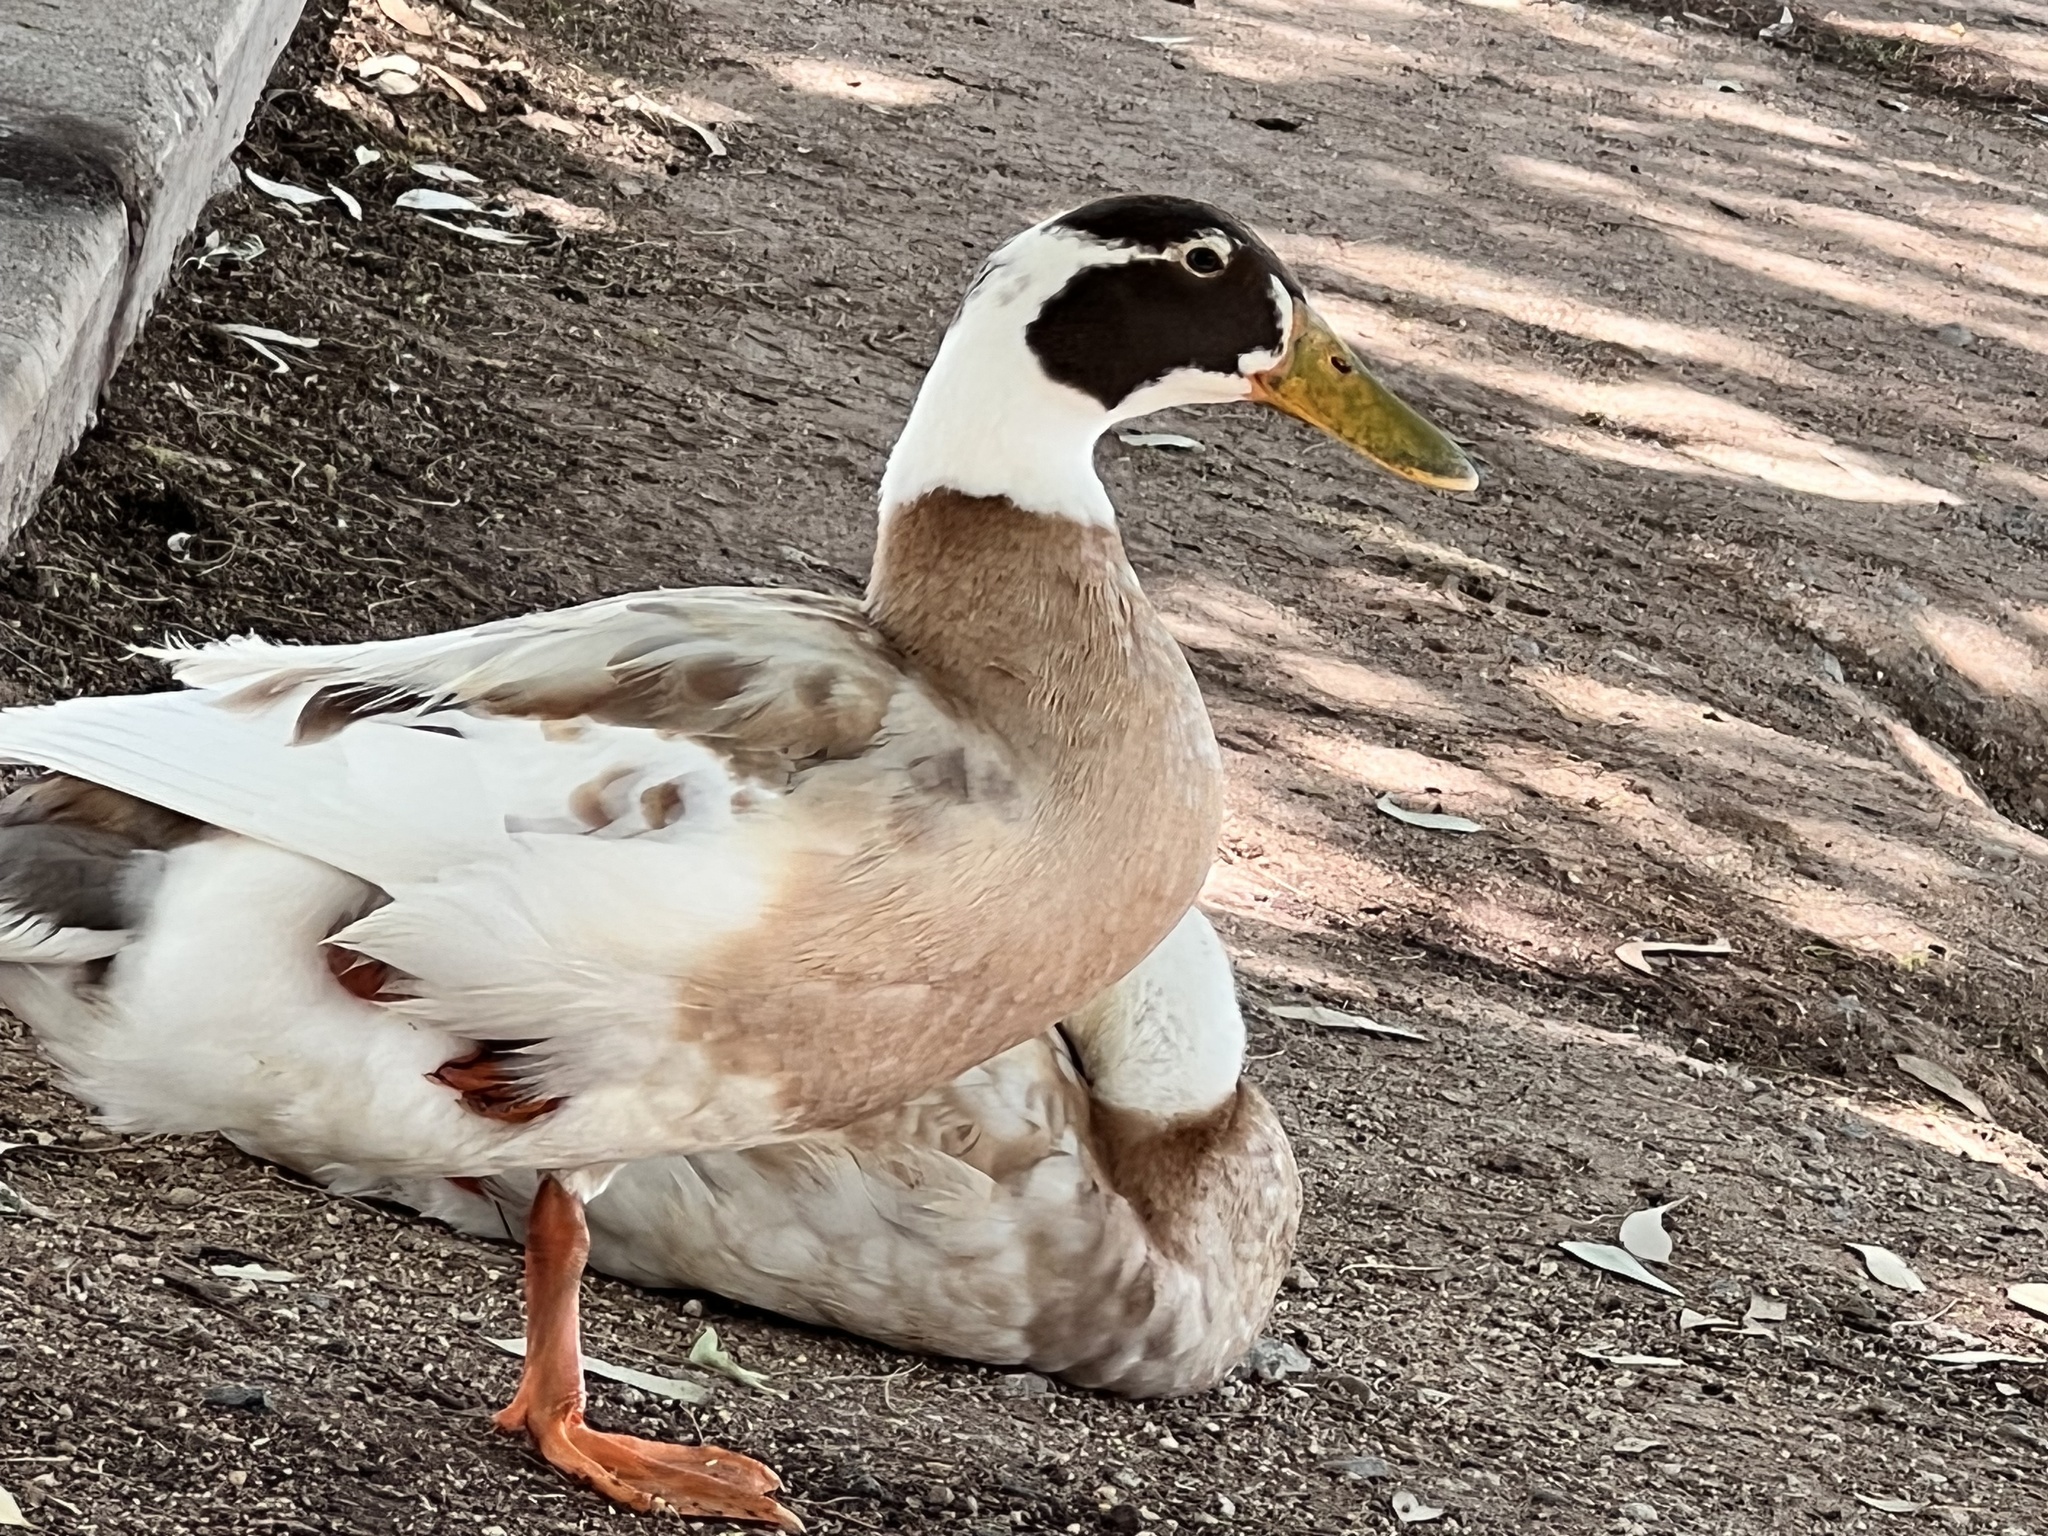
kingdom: Animalia
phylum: Chordata
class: Aves
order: Anseriformes
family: Anatidae
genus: Anas
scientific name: Anas platyrhynchos
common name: Mallard
